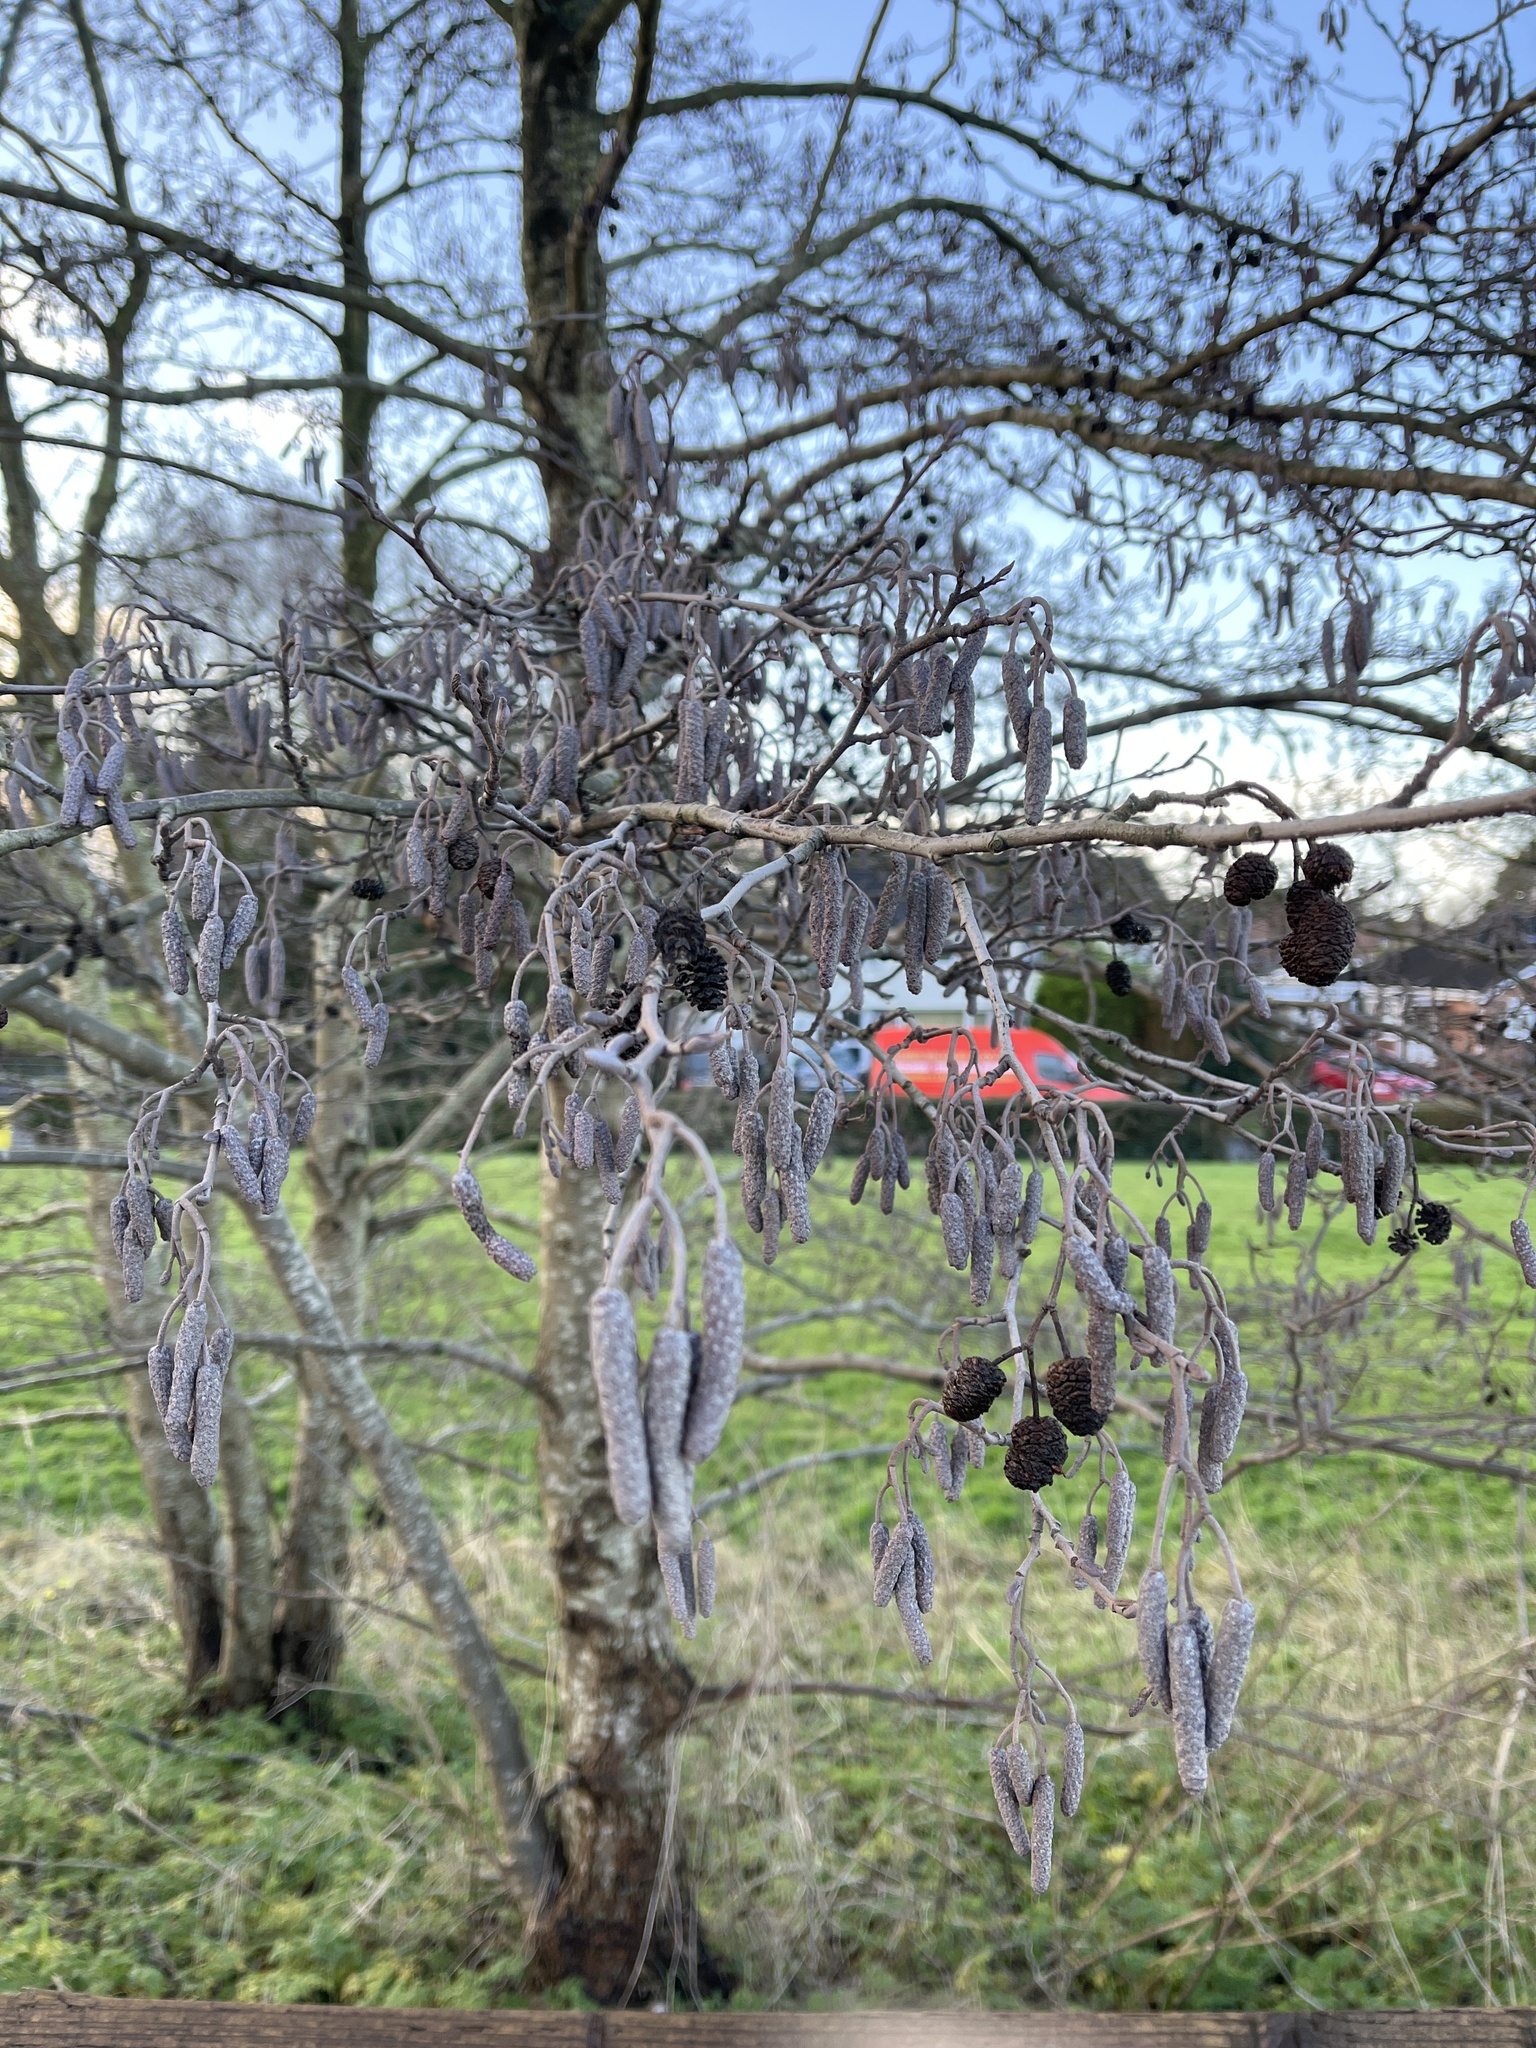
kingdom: Plantae
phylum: Tracheophyta
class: Magnoliopsida
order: Fagales
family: Betulaceae
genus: Alnus
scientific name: Alnus glutinosa
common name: Black alder
